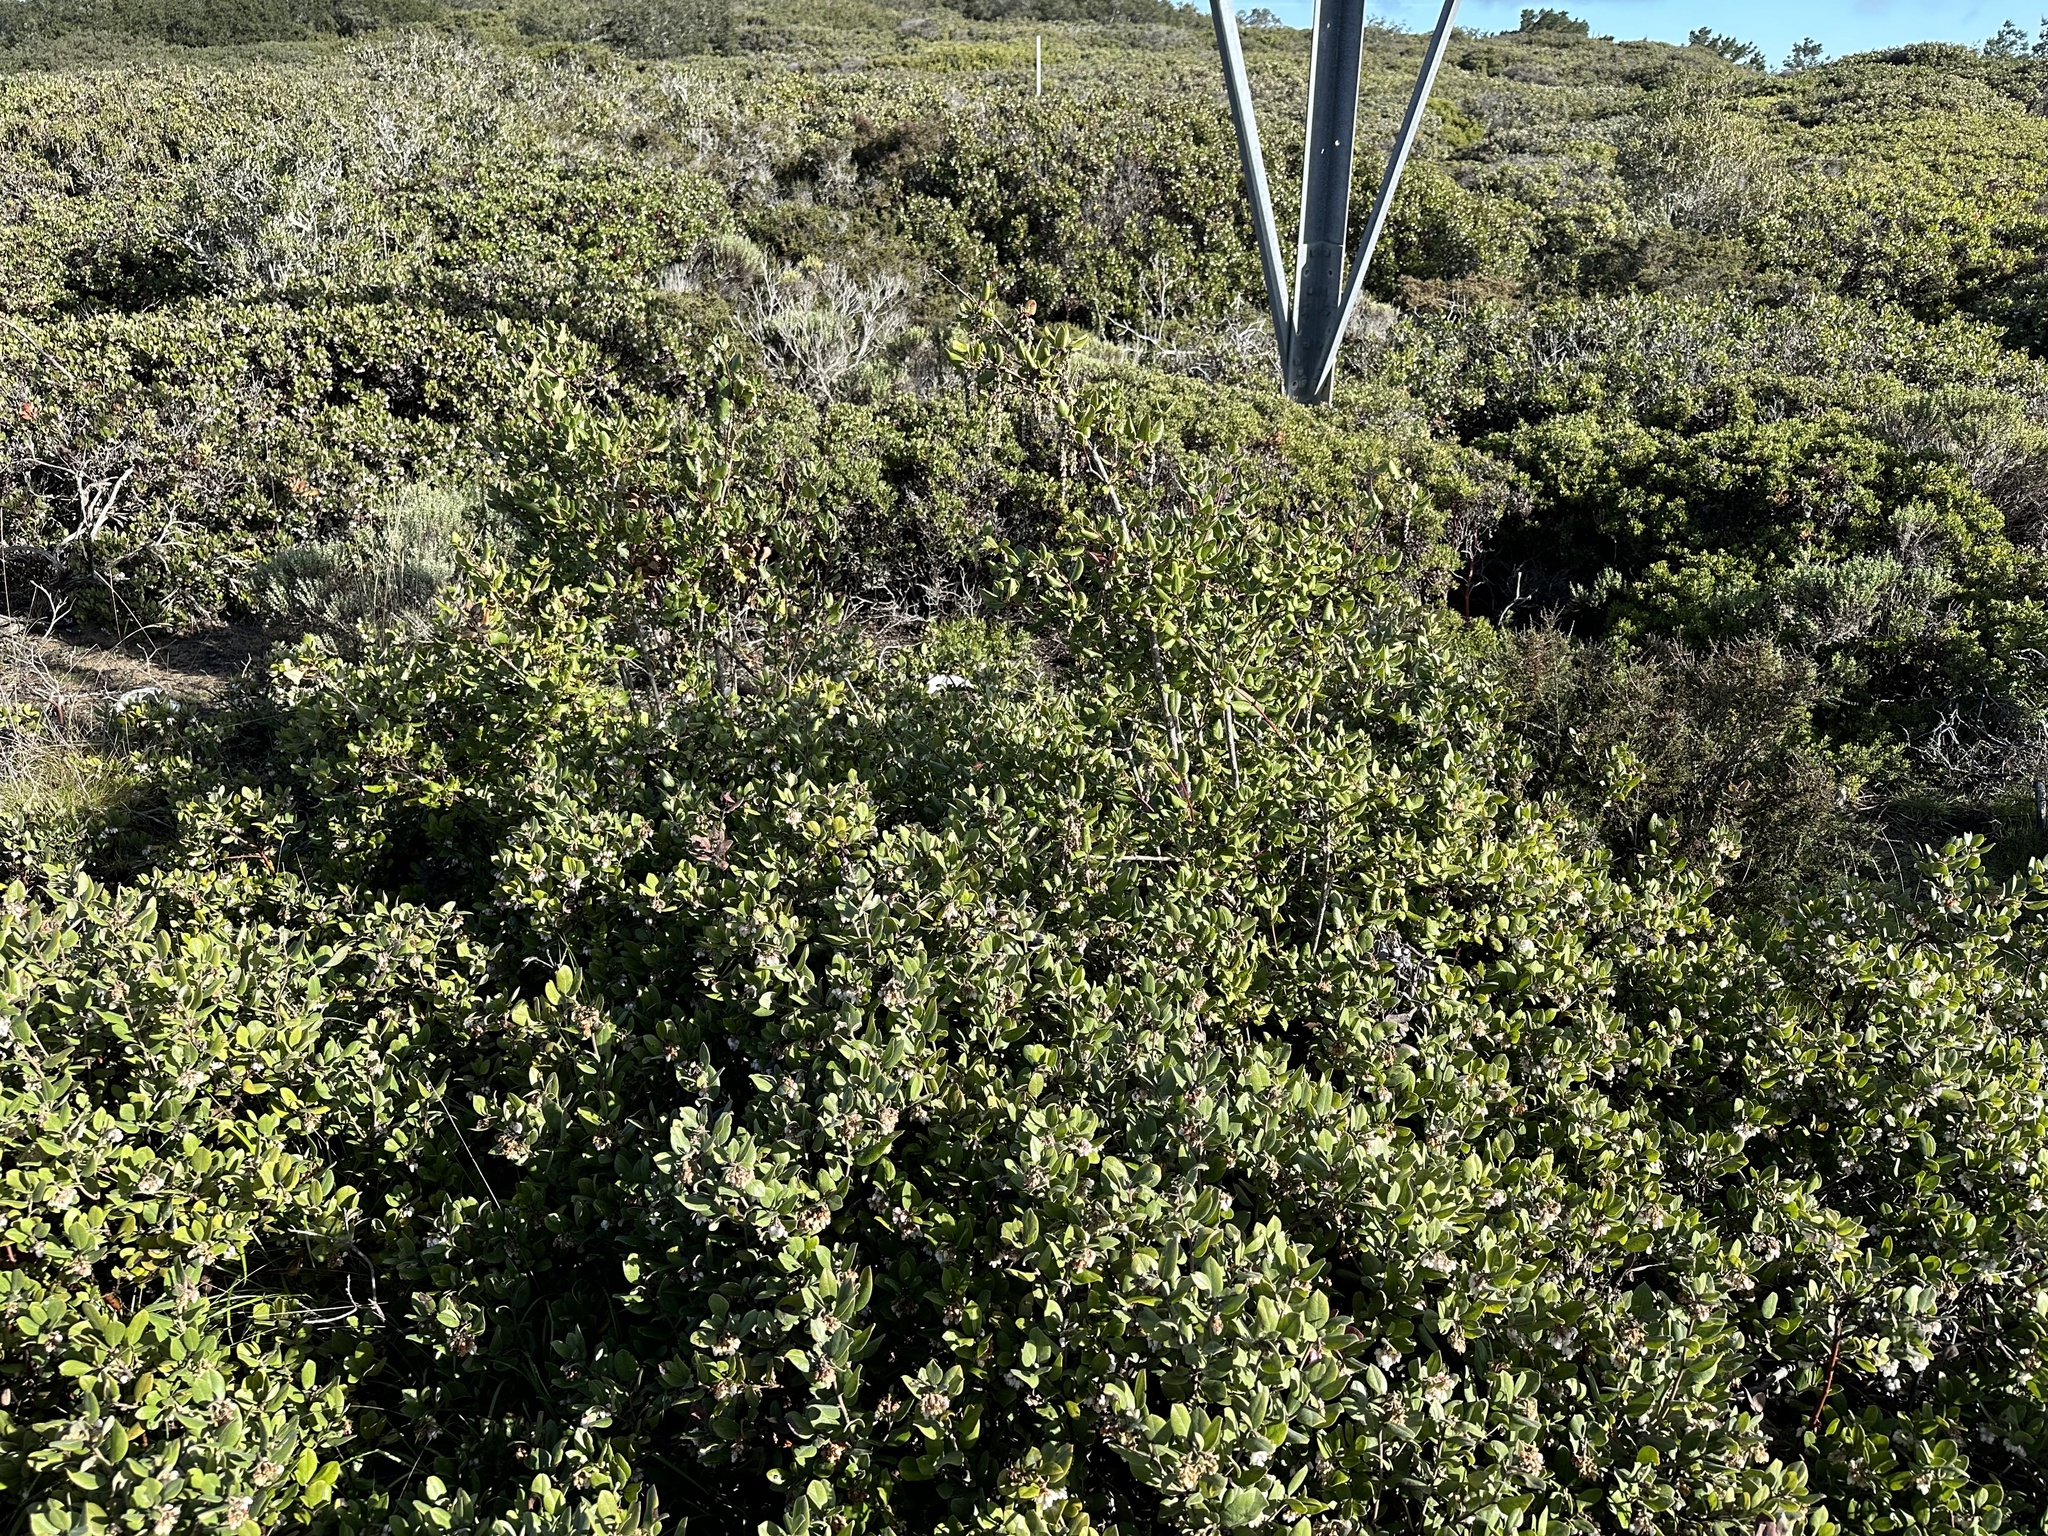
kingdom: Plantae
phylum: Tracheophyta
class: Magnoliopsida
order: Garryales
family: Garryaceae
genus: Garrya
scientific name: Garrya elliptica
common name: Silk-tassel
